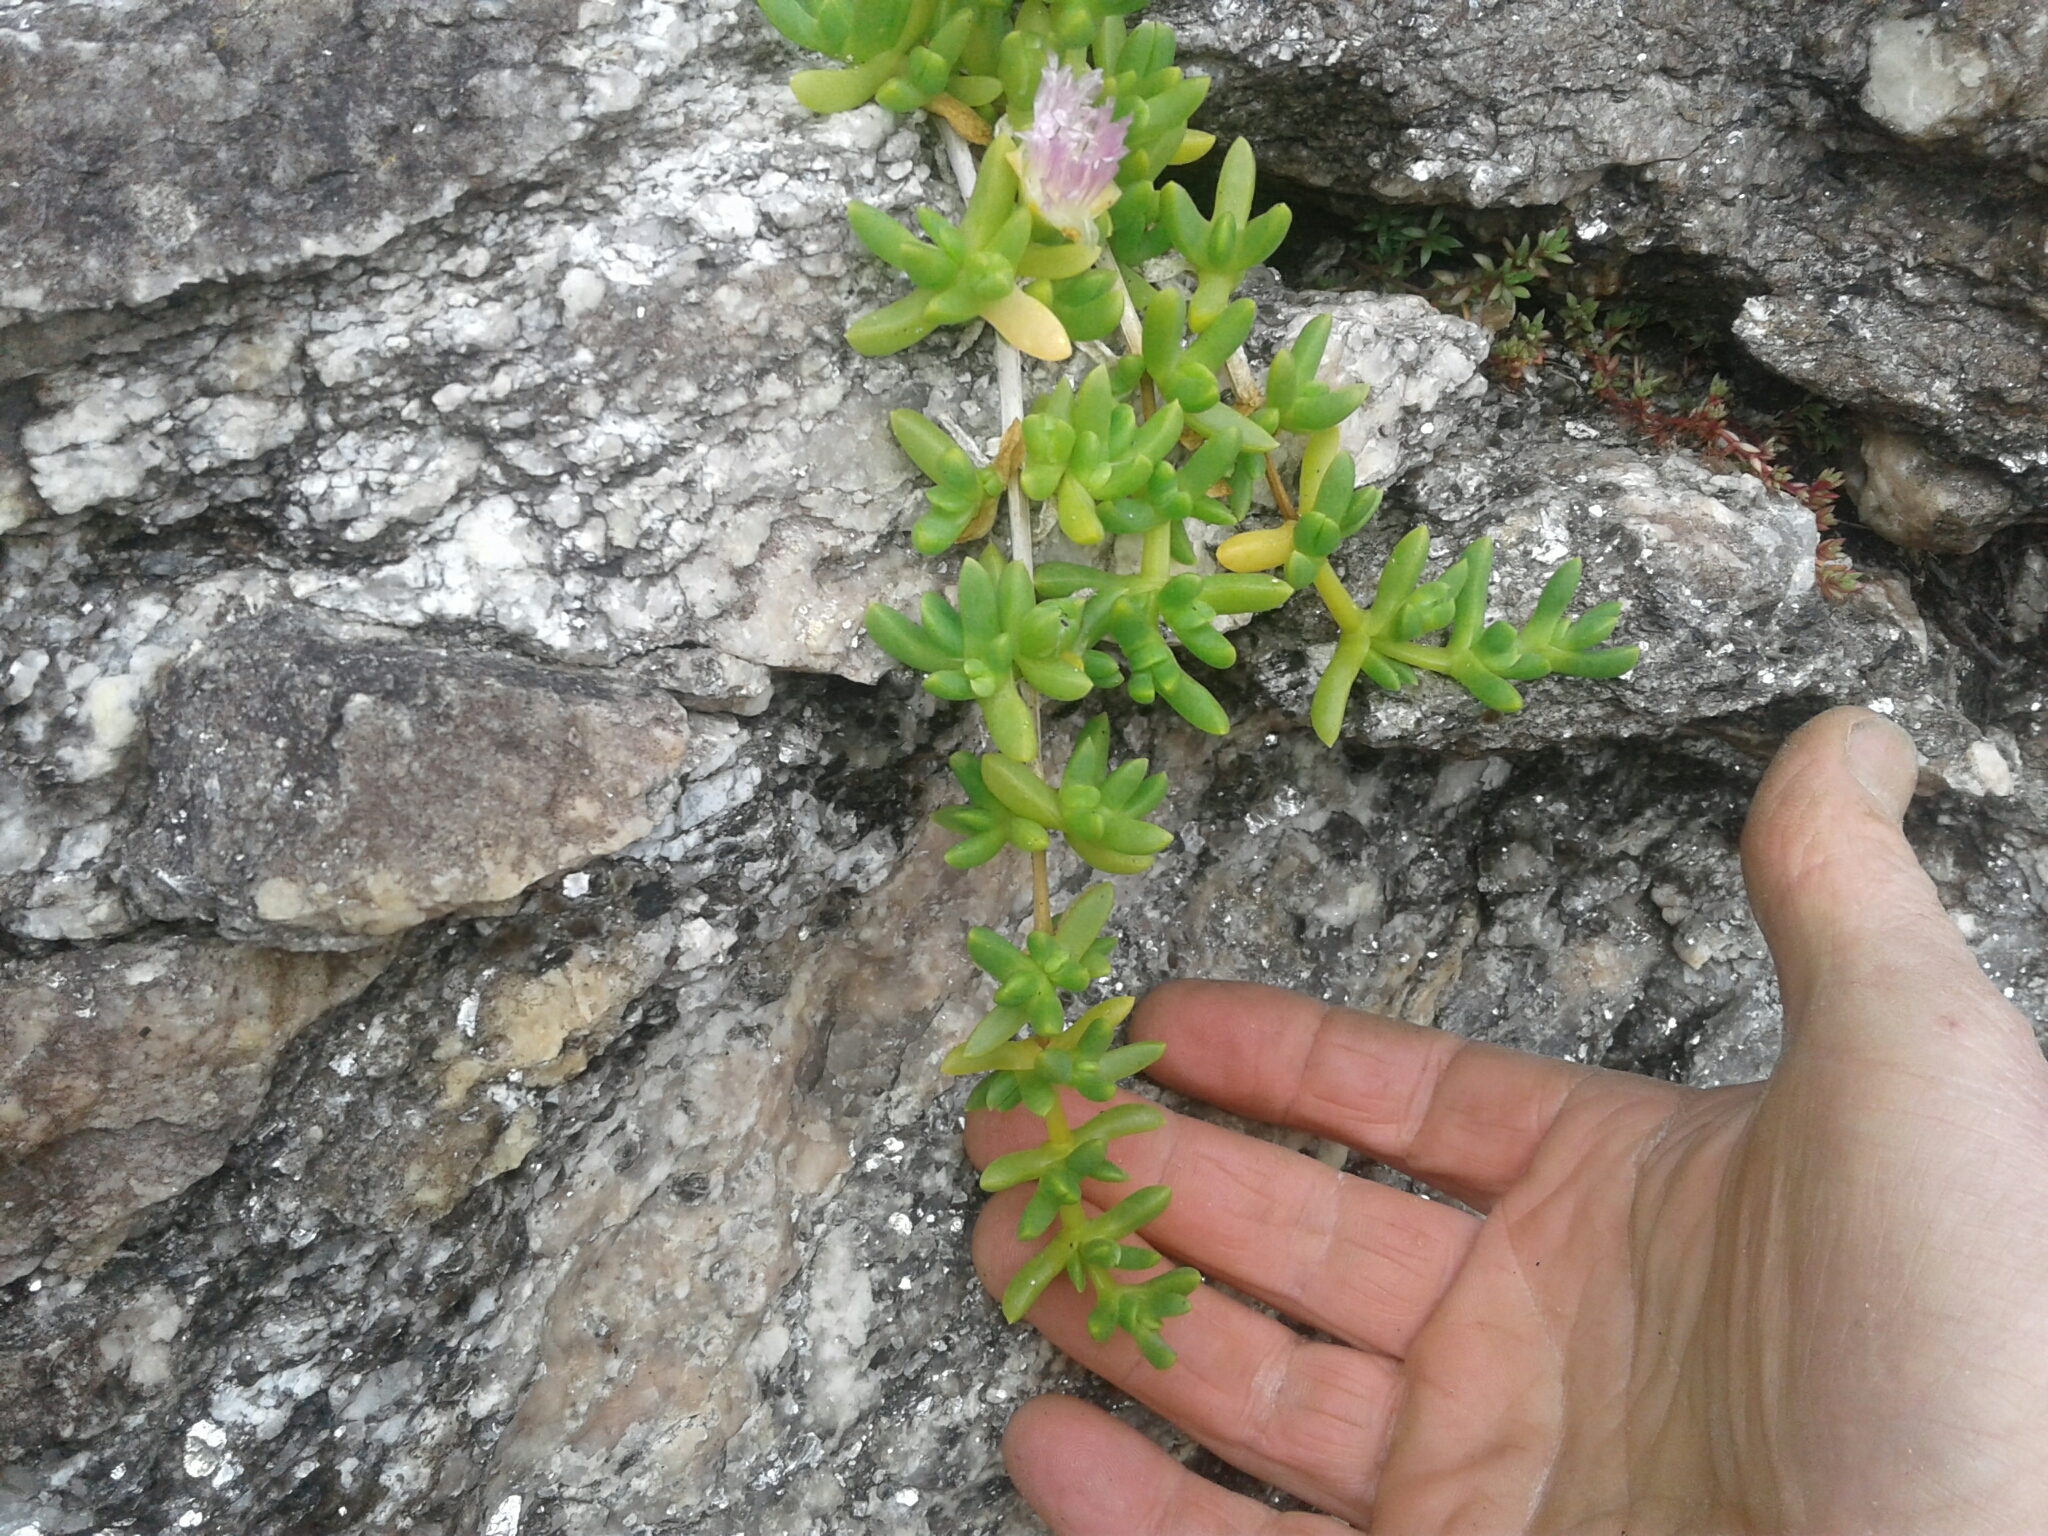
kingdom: Plantae
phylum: Tracheophyta
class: Magnoliopsida
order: Caryophyllales
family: Aizoaceae
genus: Disphyma
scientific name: Disphyma australe
